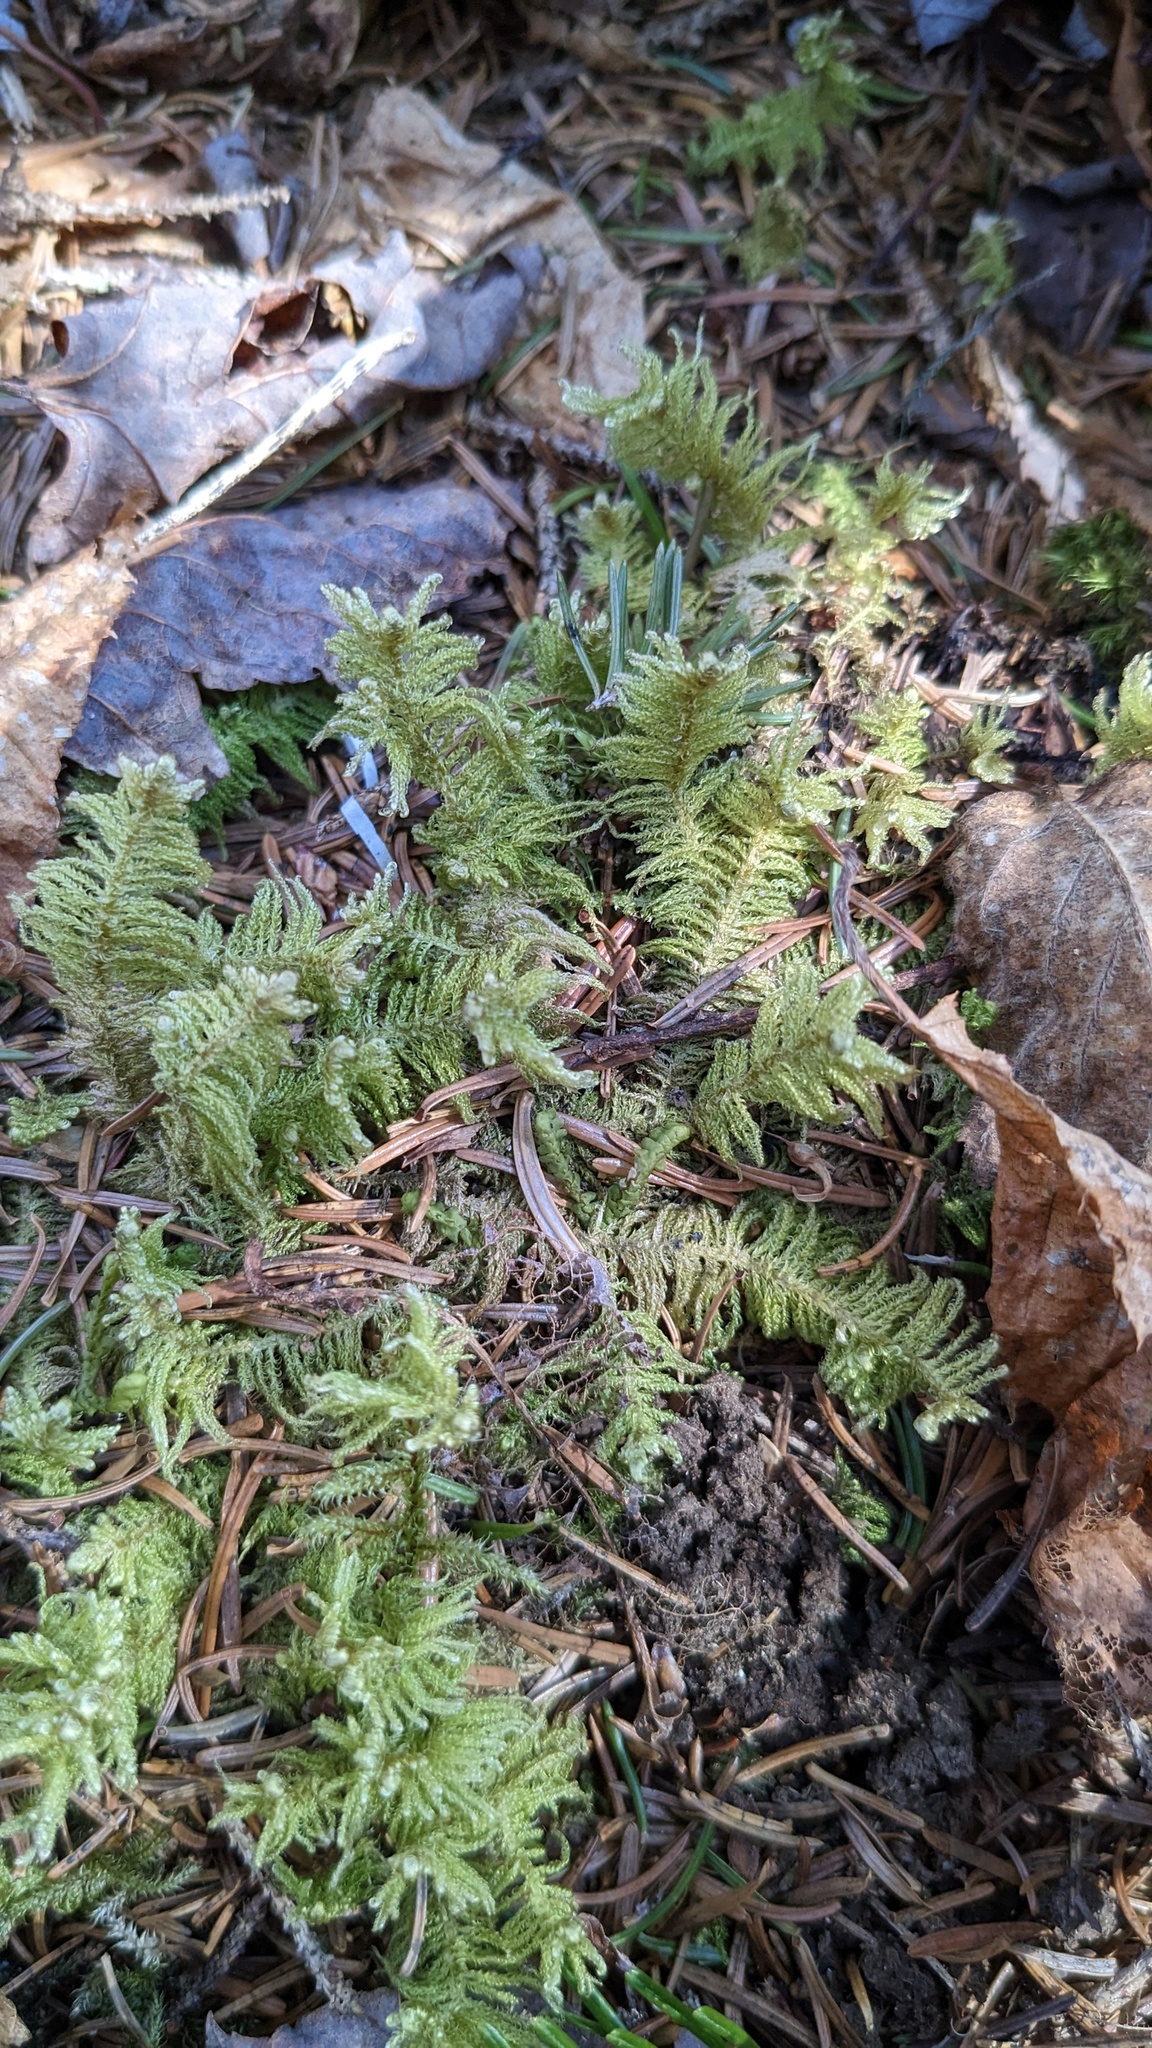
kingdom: Plantae
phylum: Bryophyta
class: Bryopsida
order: Hypnales
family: Pylaisiaceae
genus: Ptilium
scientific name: Ptilium crista-castrensis
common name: Knight's plume moss
